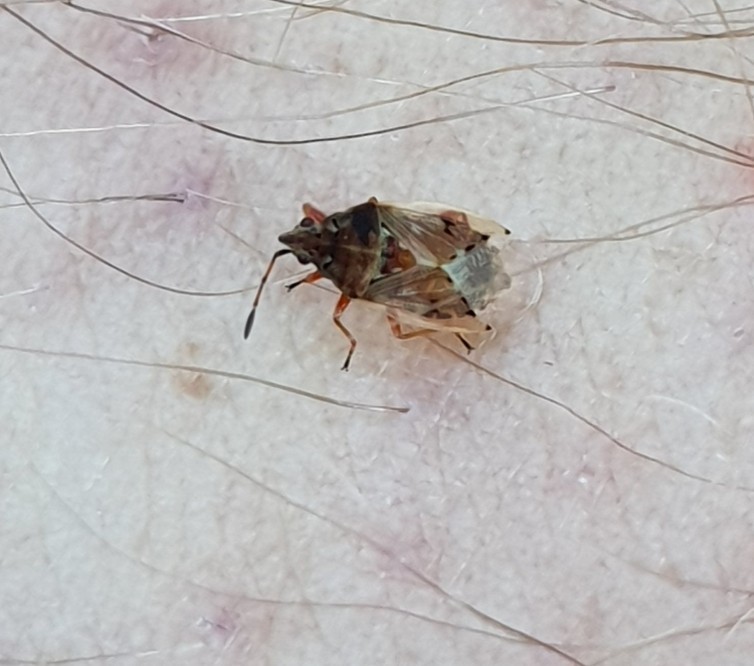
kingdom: Animalia
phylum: Arthropoda
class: Insecta
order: Hemiptera
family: Lygaeidae
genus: Kleidocerys
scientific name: Kleidocerys resedae
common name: Birch catkin bug
